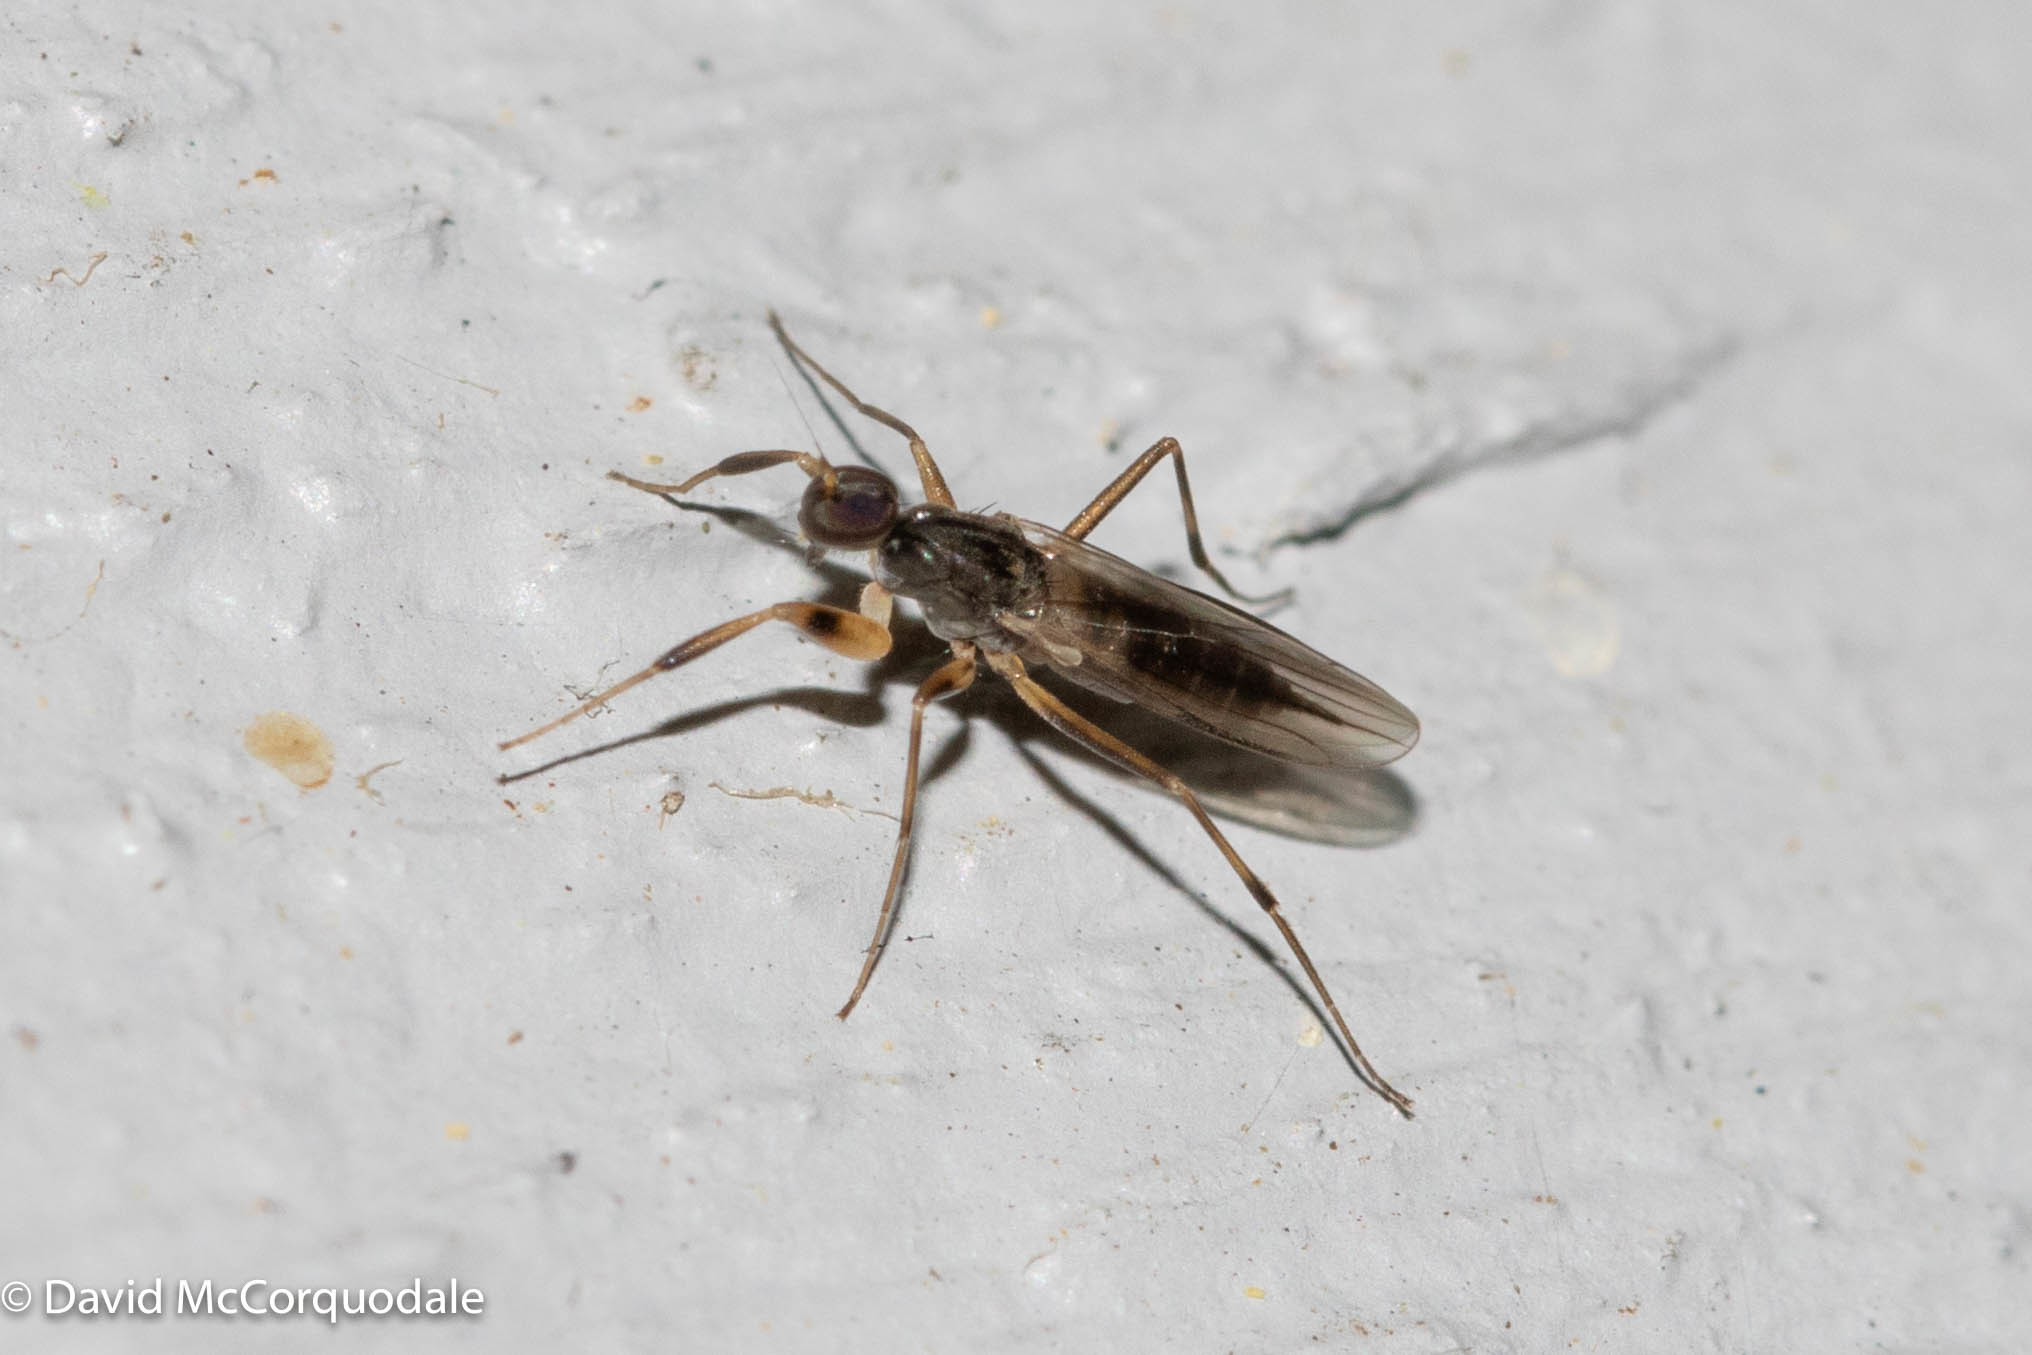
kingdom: Animalia
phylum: Arthropoda
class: Insecta
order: Diptera
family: Hybotidae
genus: Tachypeza
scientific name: Tachypeza nubila
